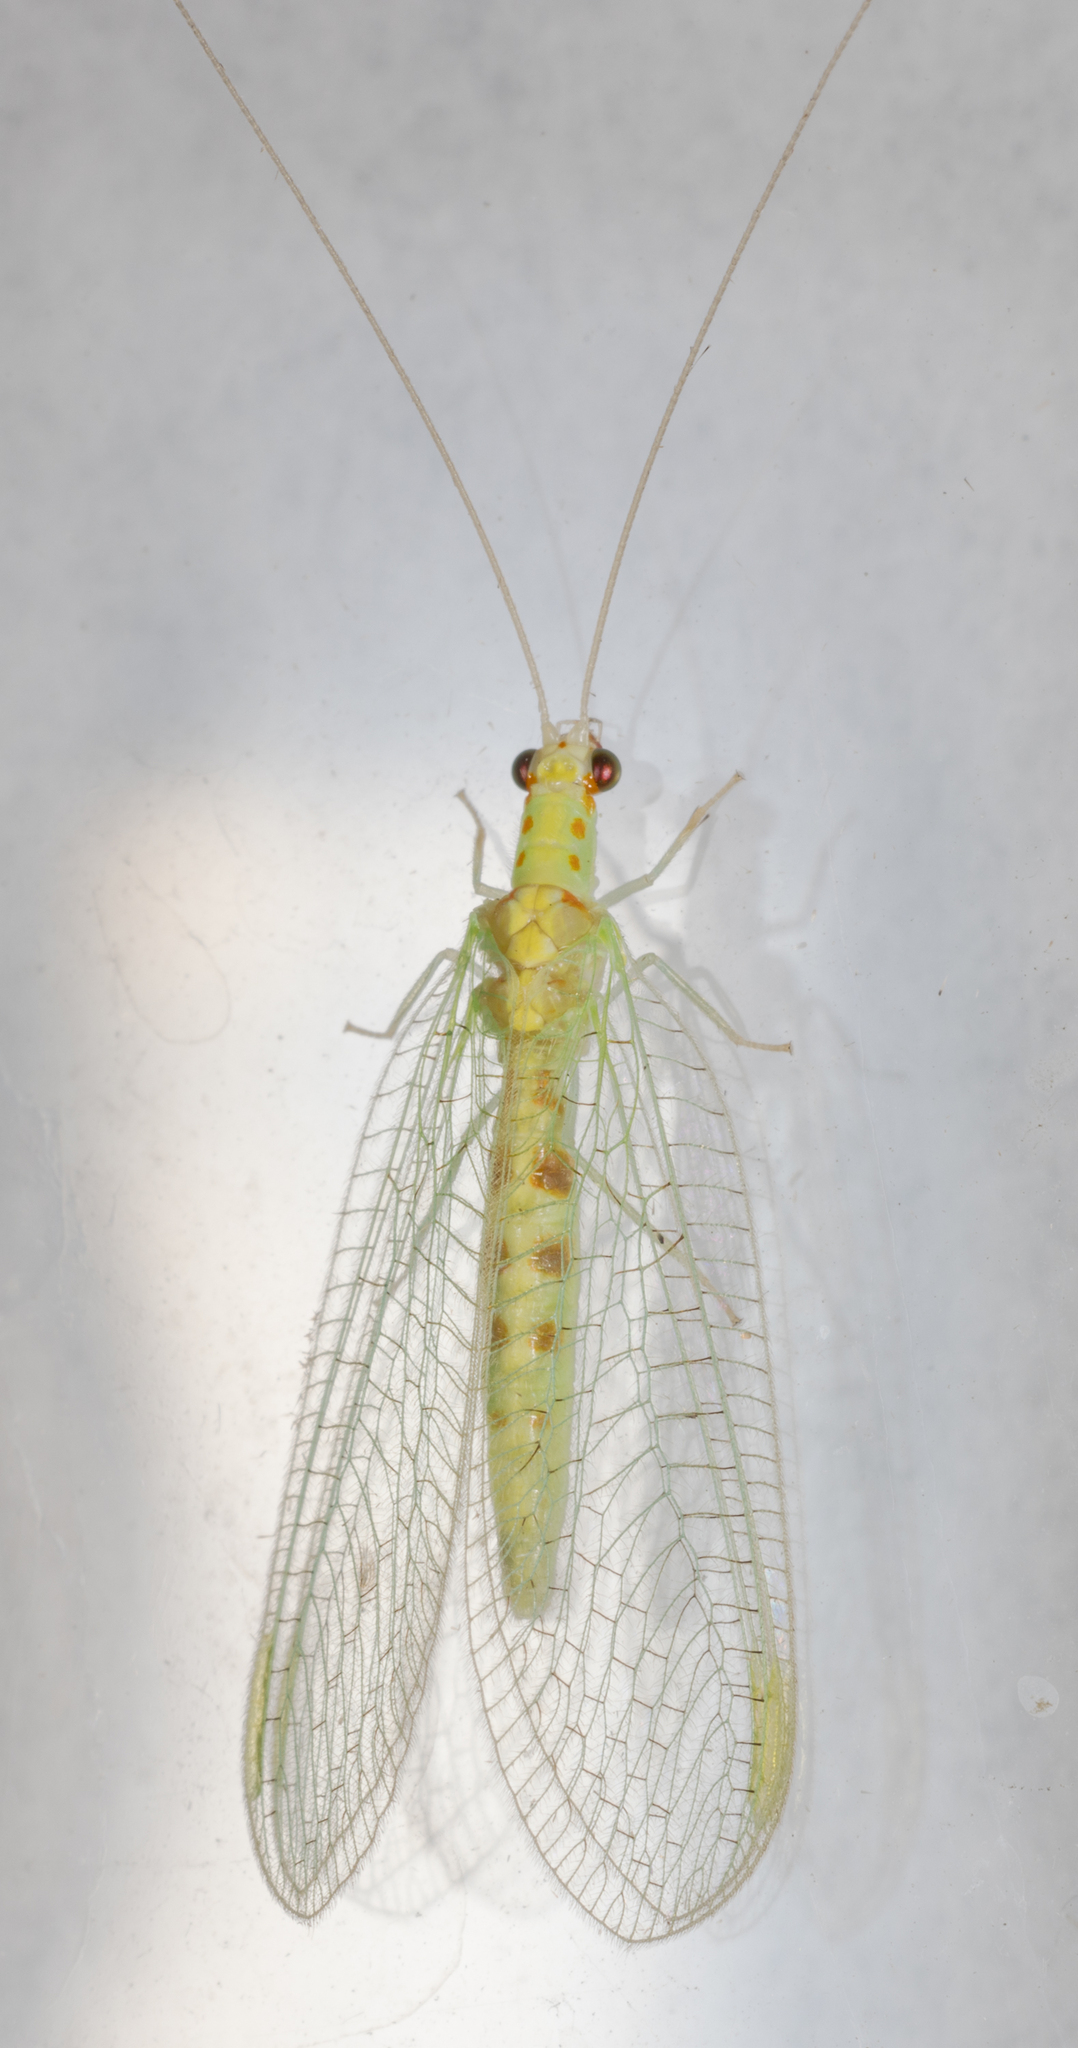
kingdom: Animalia
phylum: Arthropoda
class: Insecta
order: Neuroptera
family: Chrysopidae
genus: Chrysopa
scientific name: Chrysopa quadripunctata
